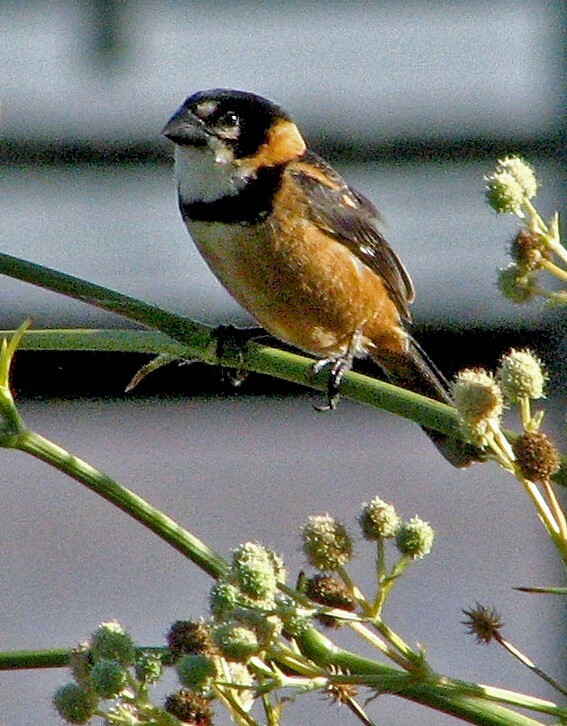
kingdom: Animalia
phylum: Chordata
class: Aves
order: Passeriformes
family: Thraupidae
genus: Sporophila
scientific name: Sporophila collaris
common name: Rusty-collared seedeater
